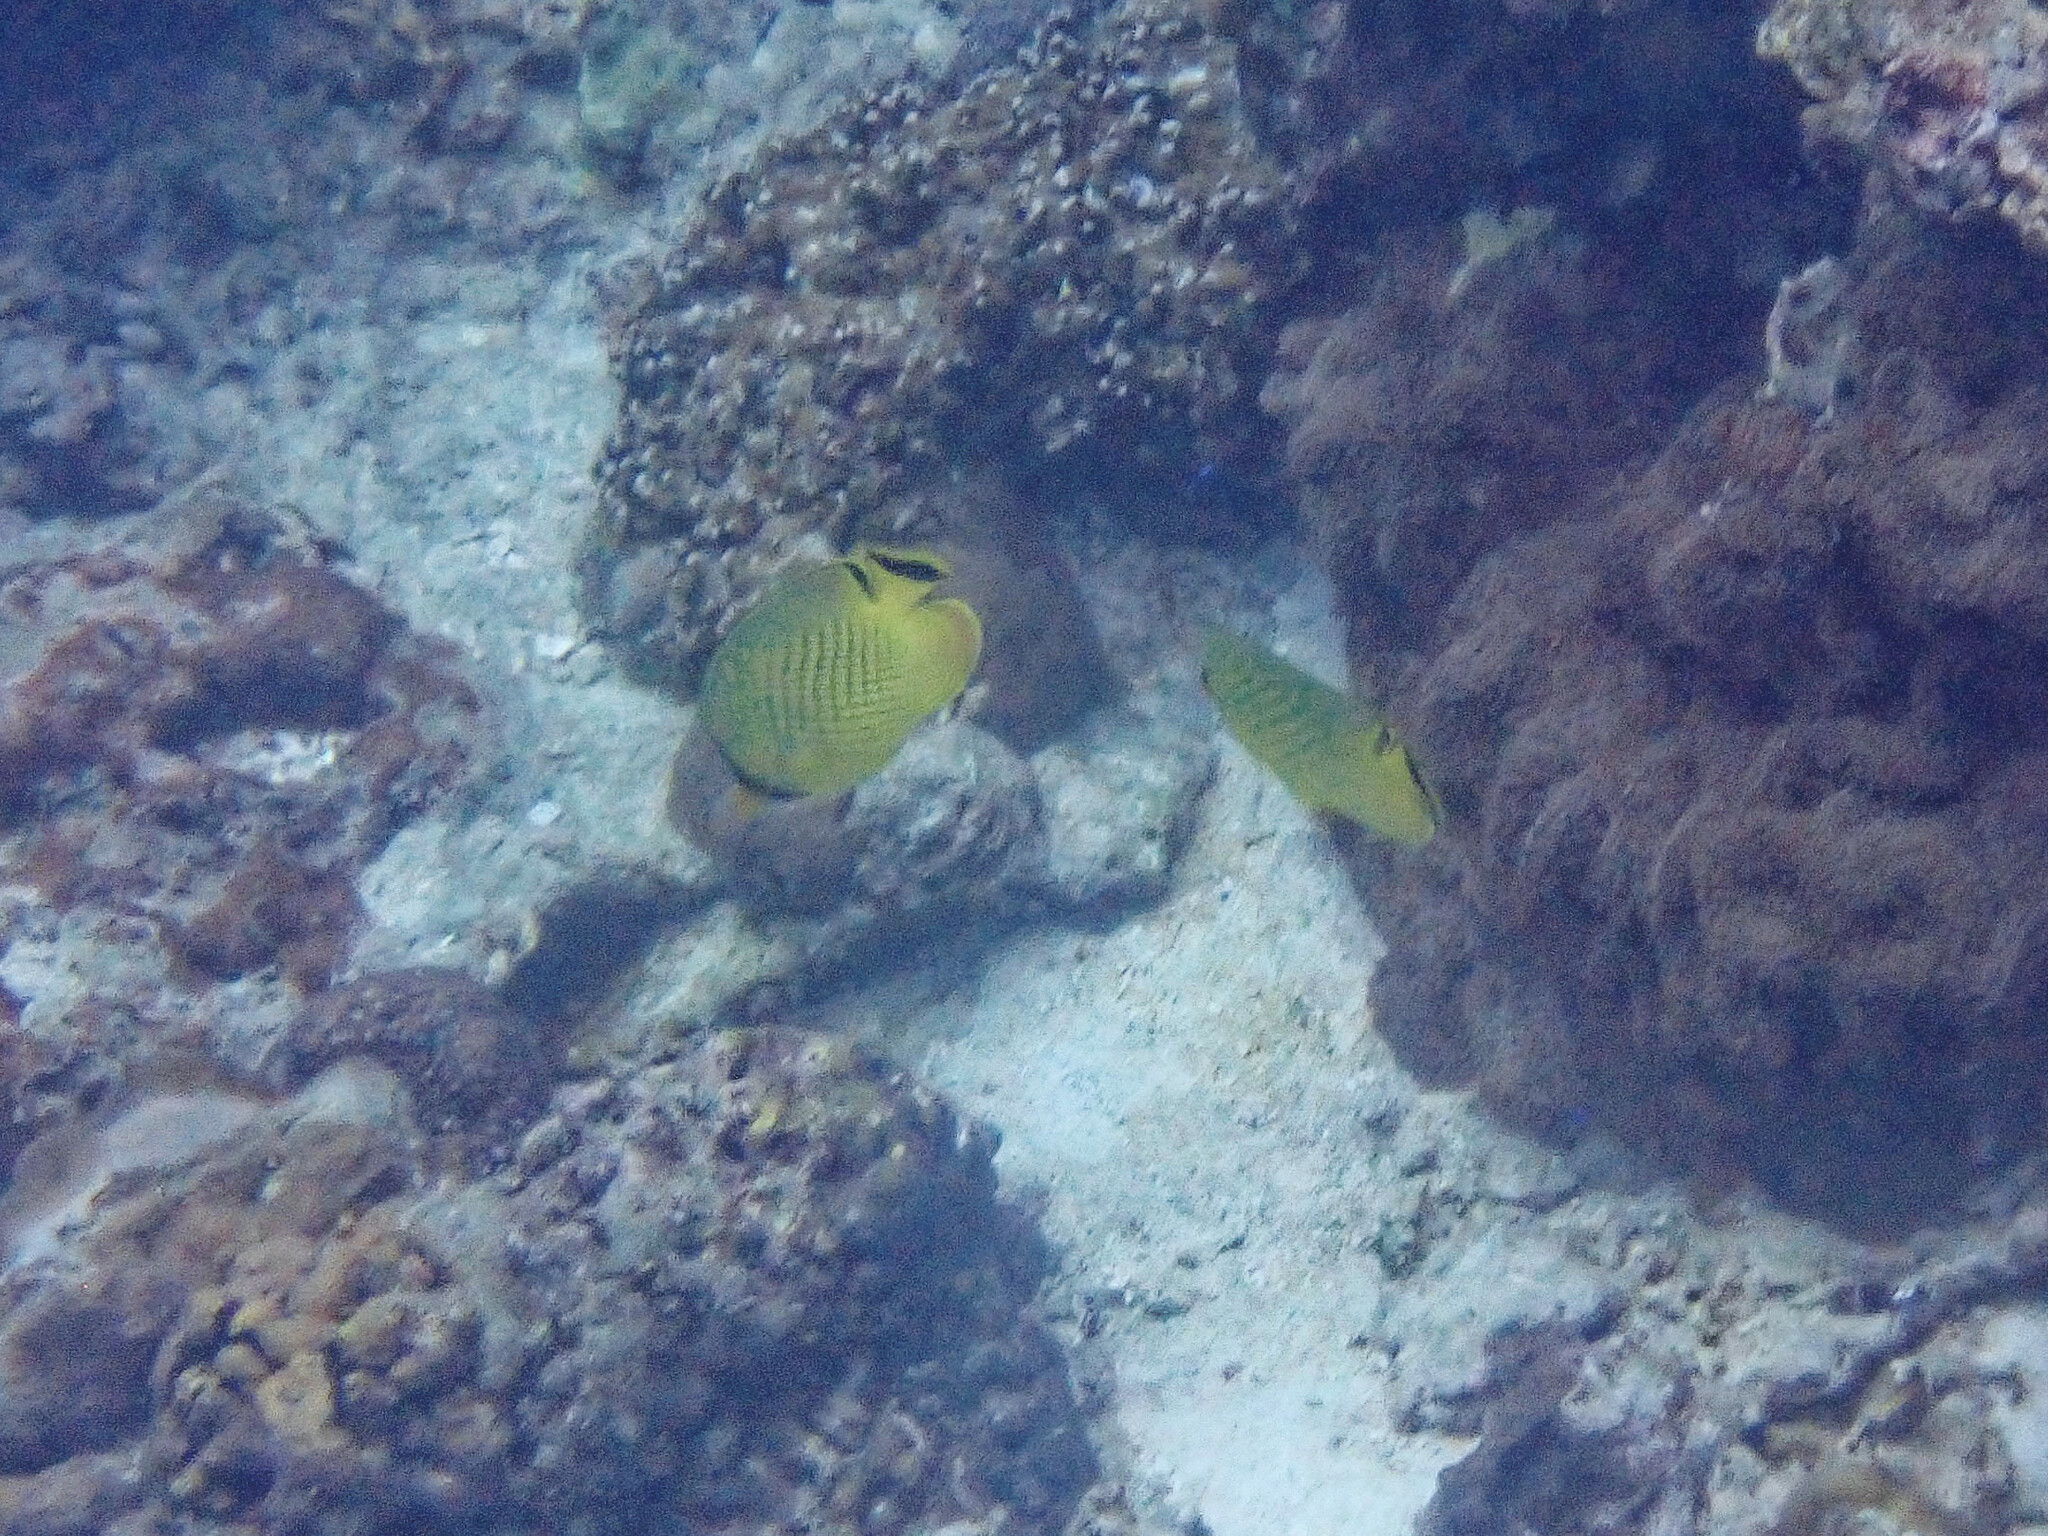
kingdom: Animalia
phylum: Chordata
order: Perciformes
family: Chaetodontidae
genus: Chaetodon
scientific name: Chaetodon rafflesii
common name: Latticed butterflyfish
